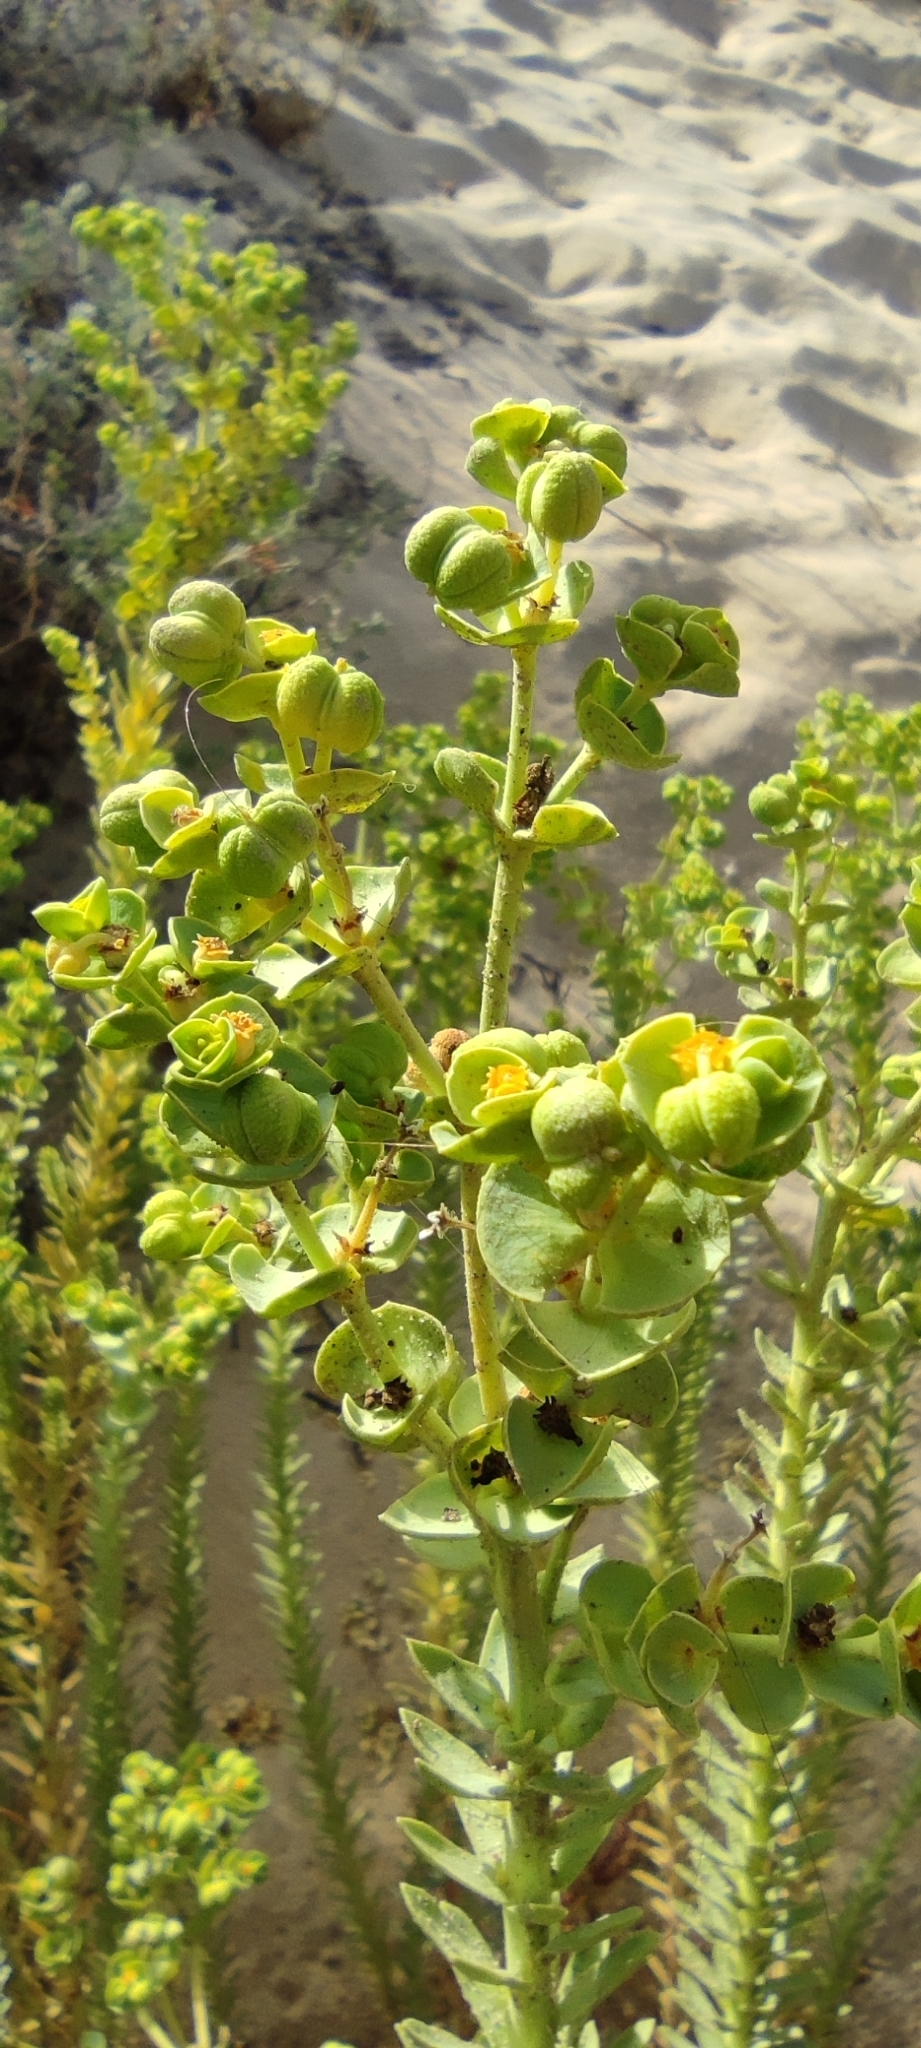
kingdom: Plantae
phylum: Tracheophyta
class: Magnoliopsida
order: Malpighiales
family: Euphorbiaceae
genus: Euphorbia
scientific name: Euphorbia paralias
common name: Sea spurge
